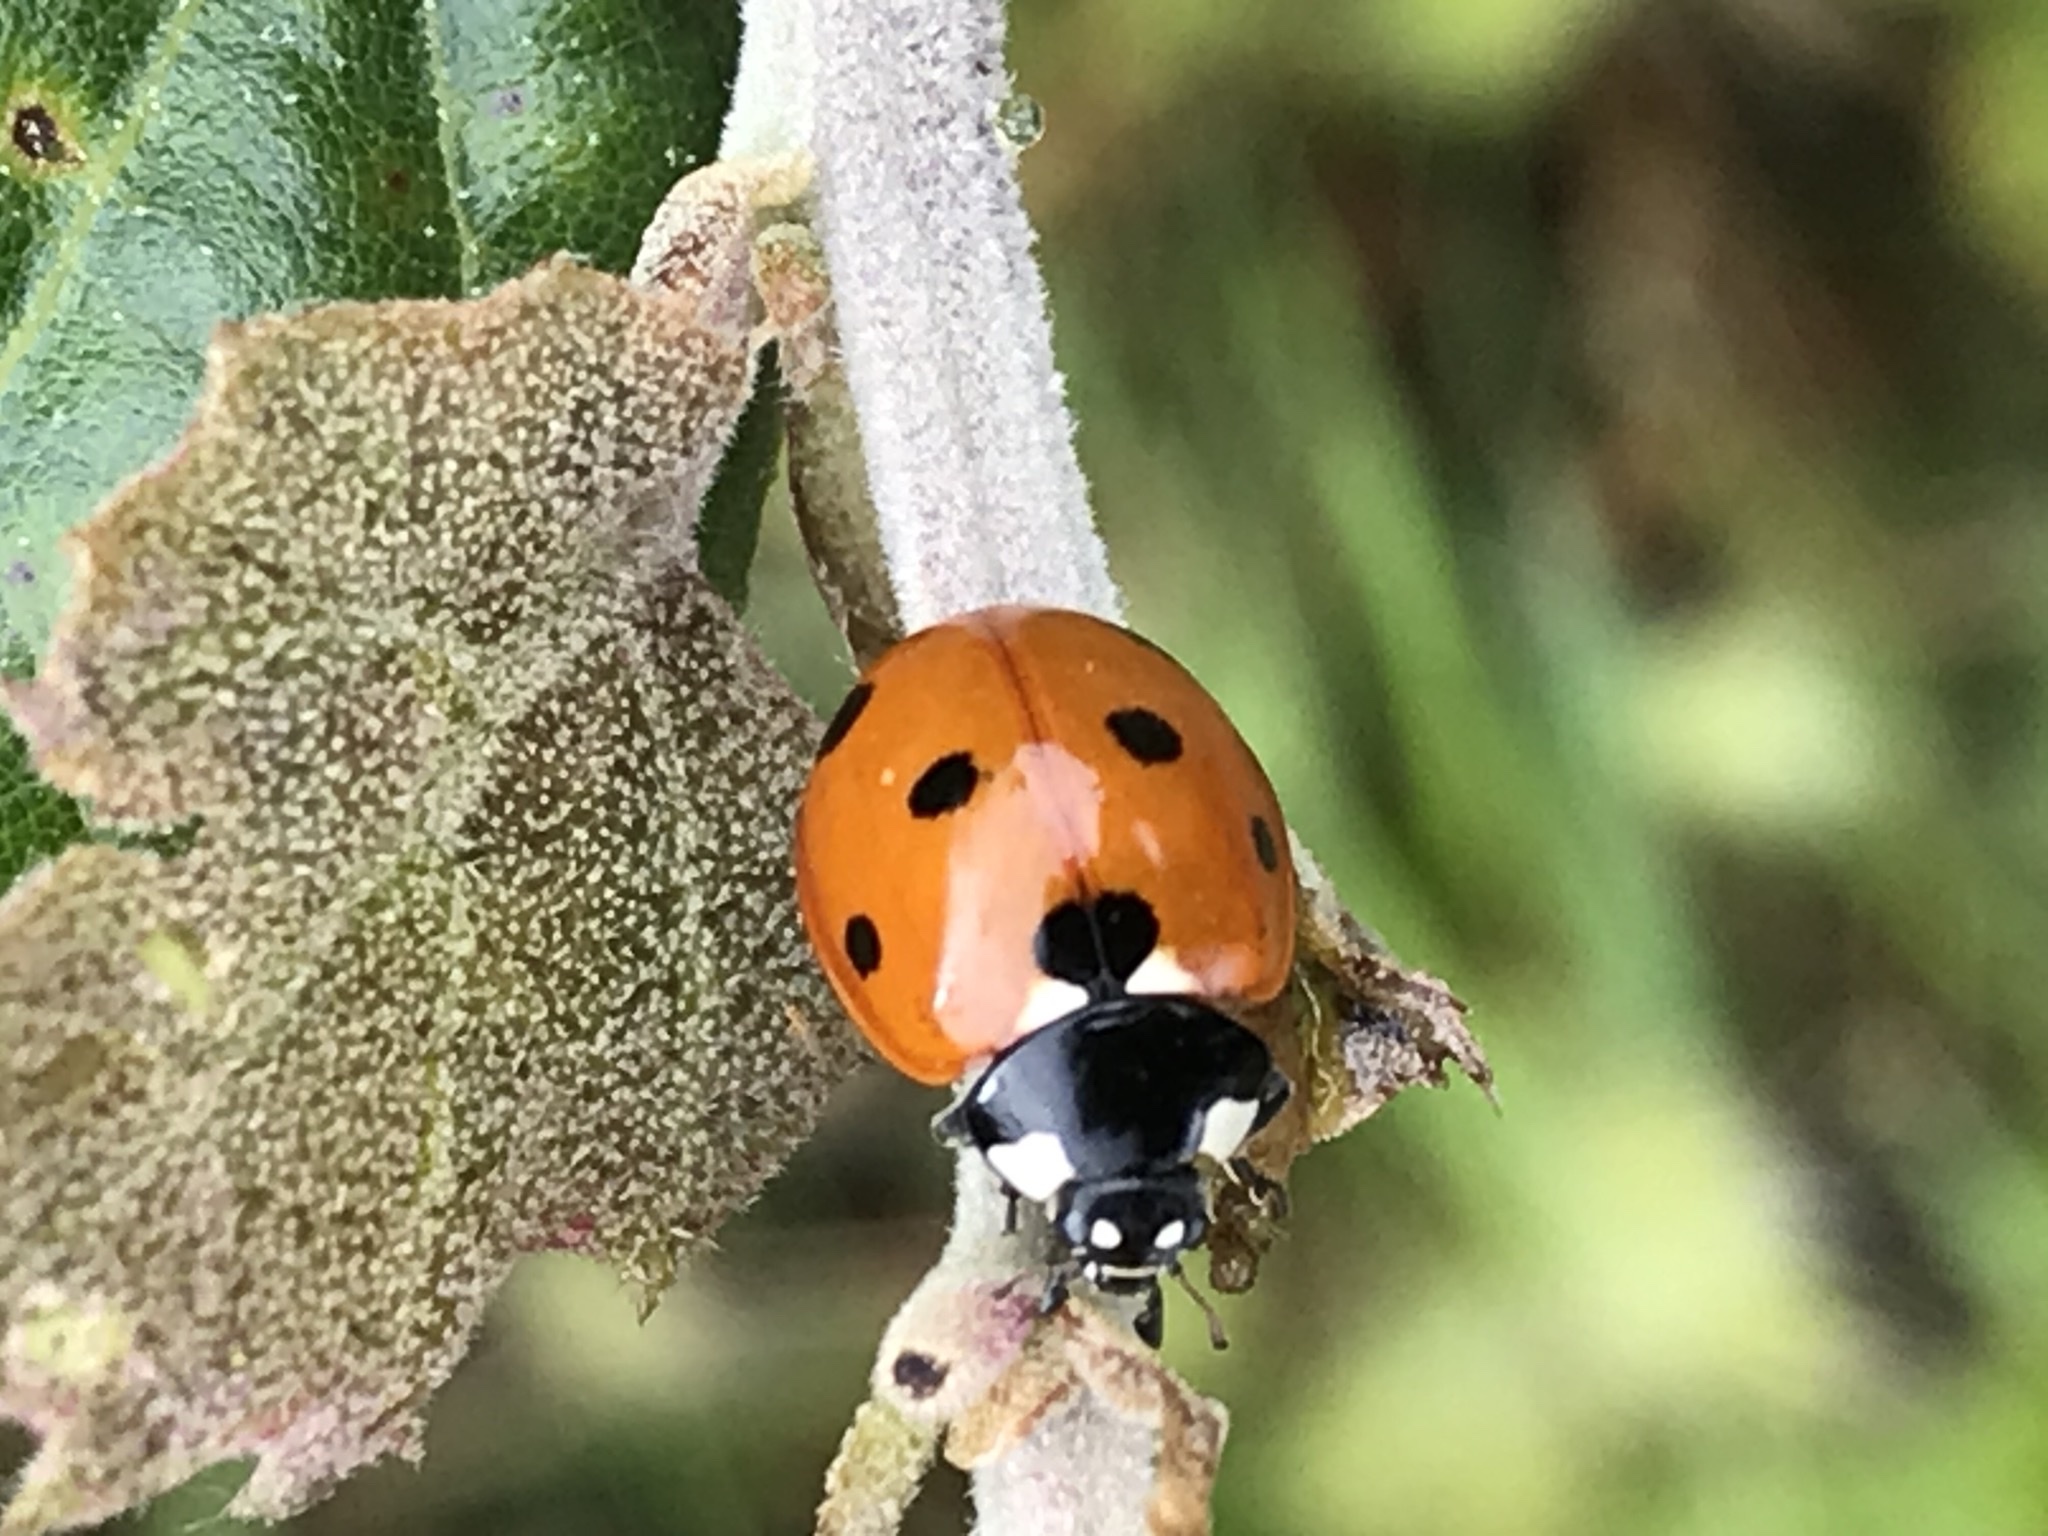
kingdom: Animalia
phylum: Arthropoda
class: Insecta
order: Coleoptera
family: Coccinellidae
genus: Coccinella
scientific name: Coccinella septempunctata
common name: Sevenspotted lady beetle
